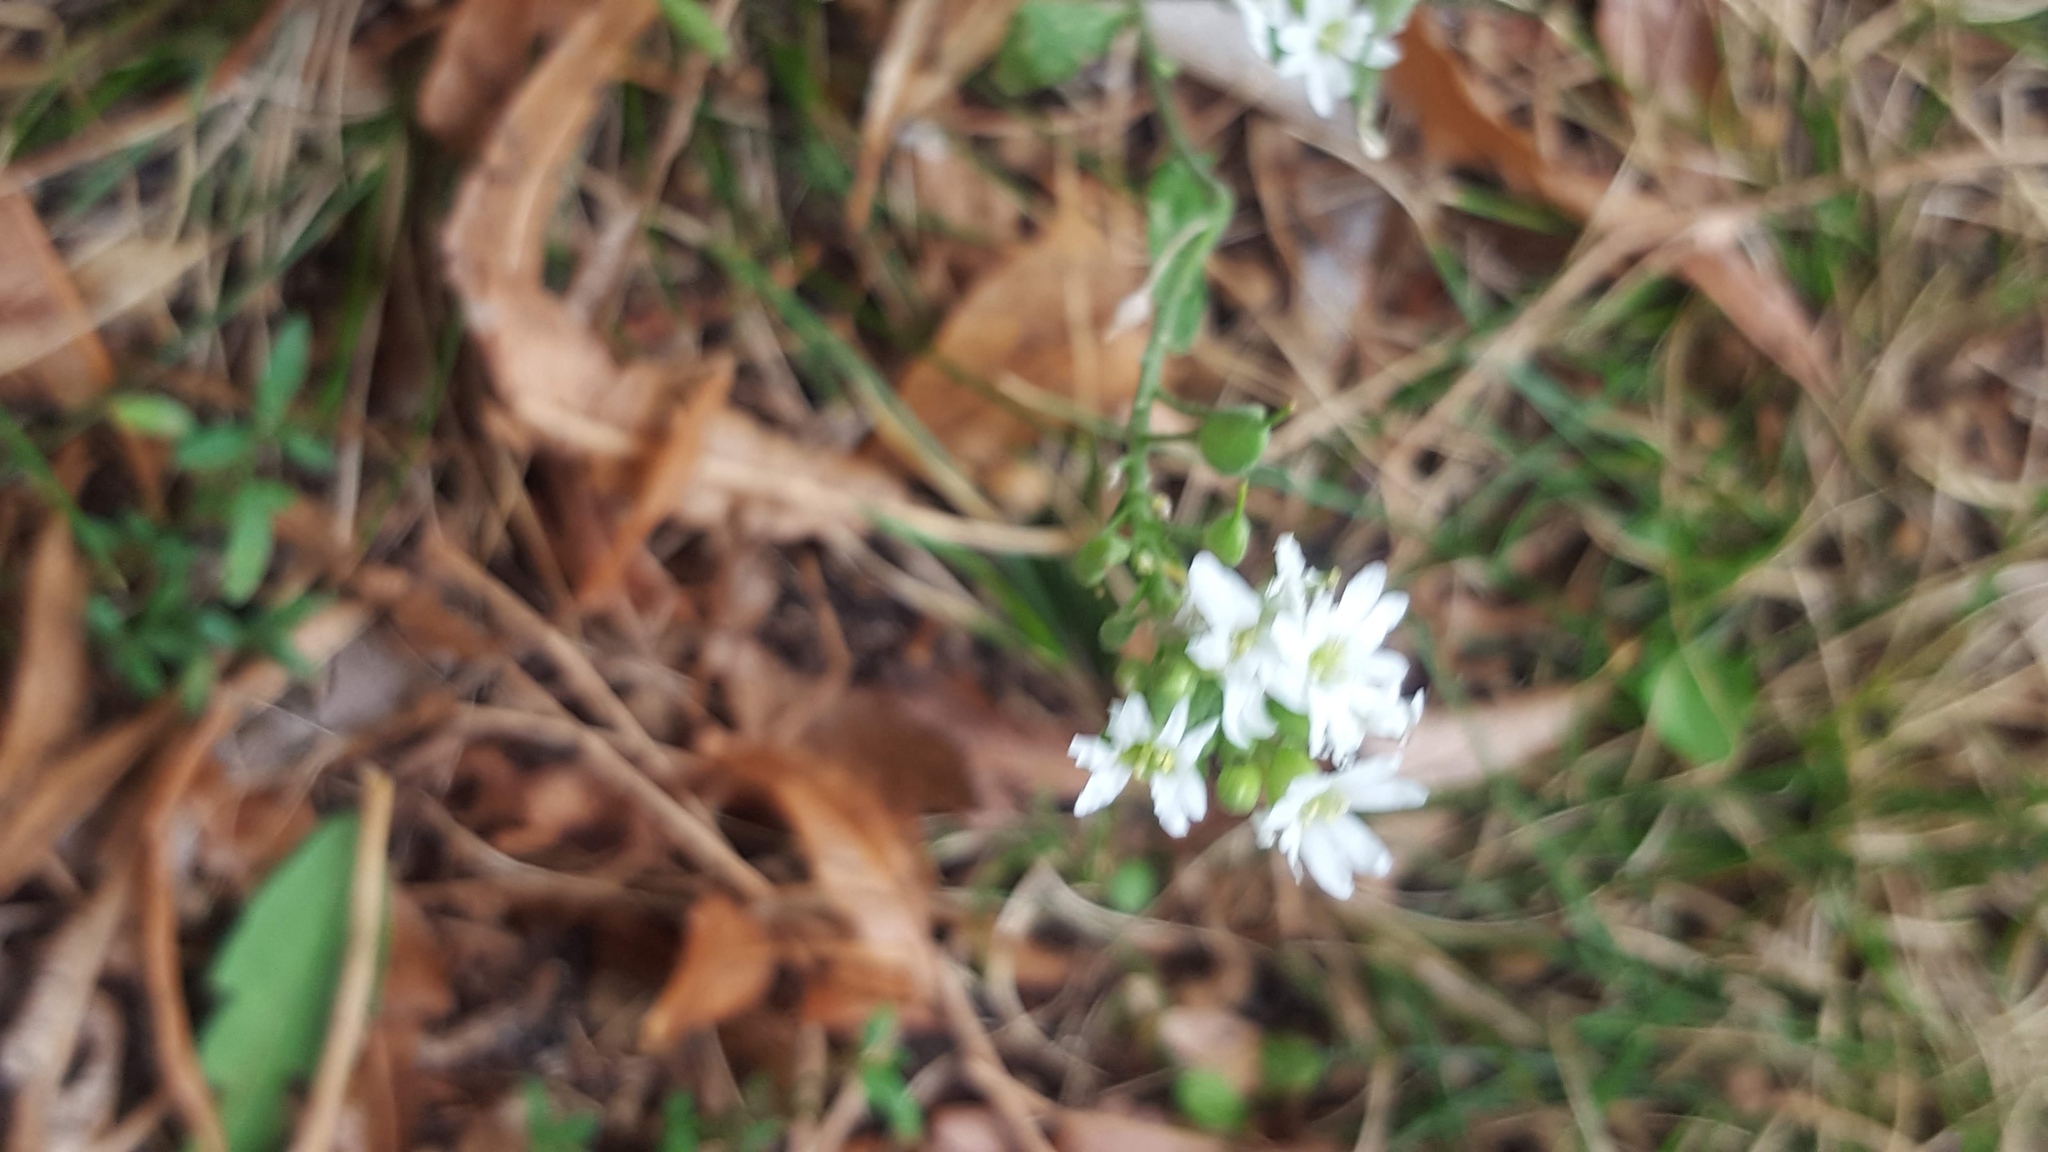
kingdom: Plantae
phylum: Tracheophyta
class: Magnoliopsida
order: Brassicales
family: Brassicaceae
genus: Berteroa
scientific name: Berteroa incana
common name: Hoary alison
